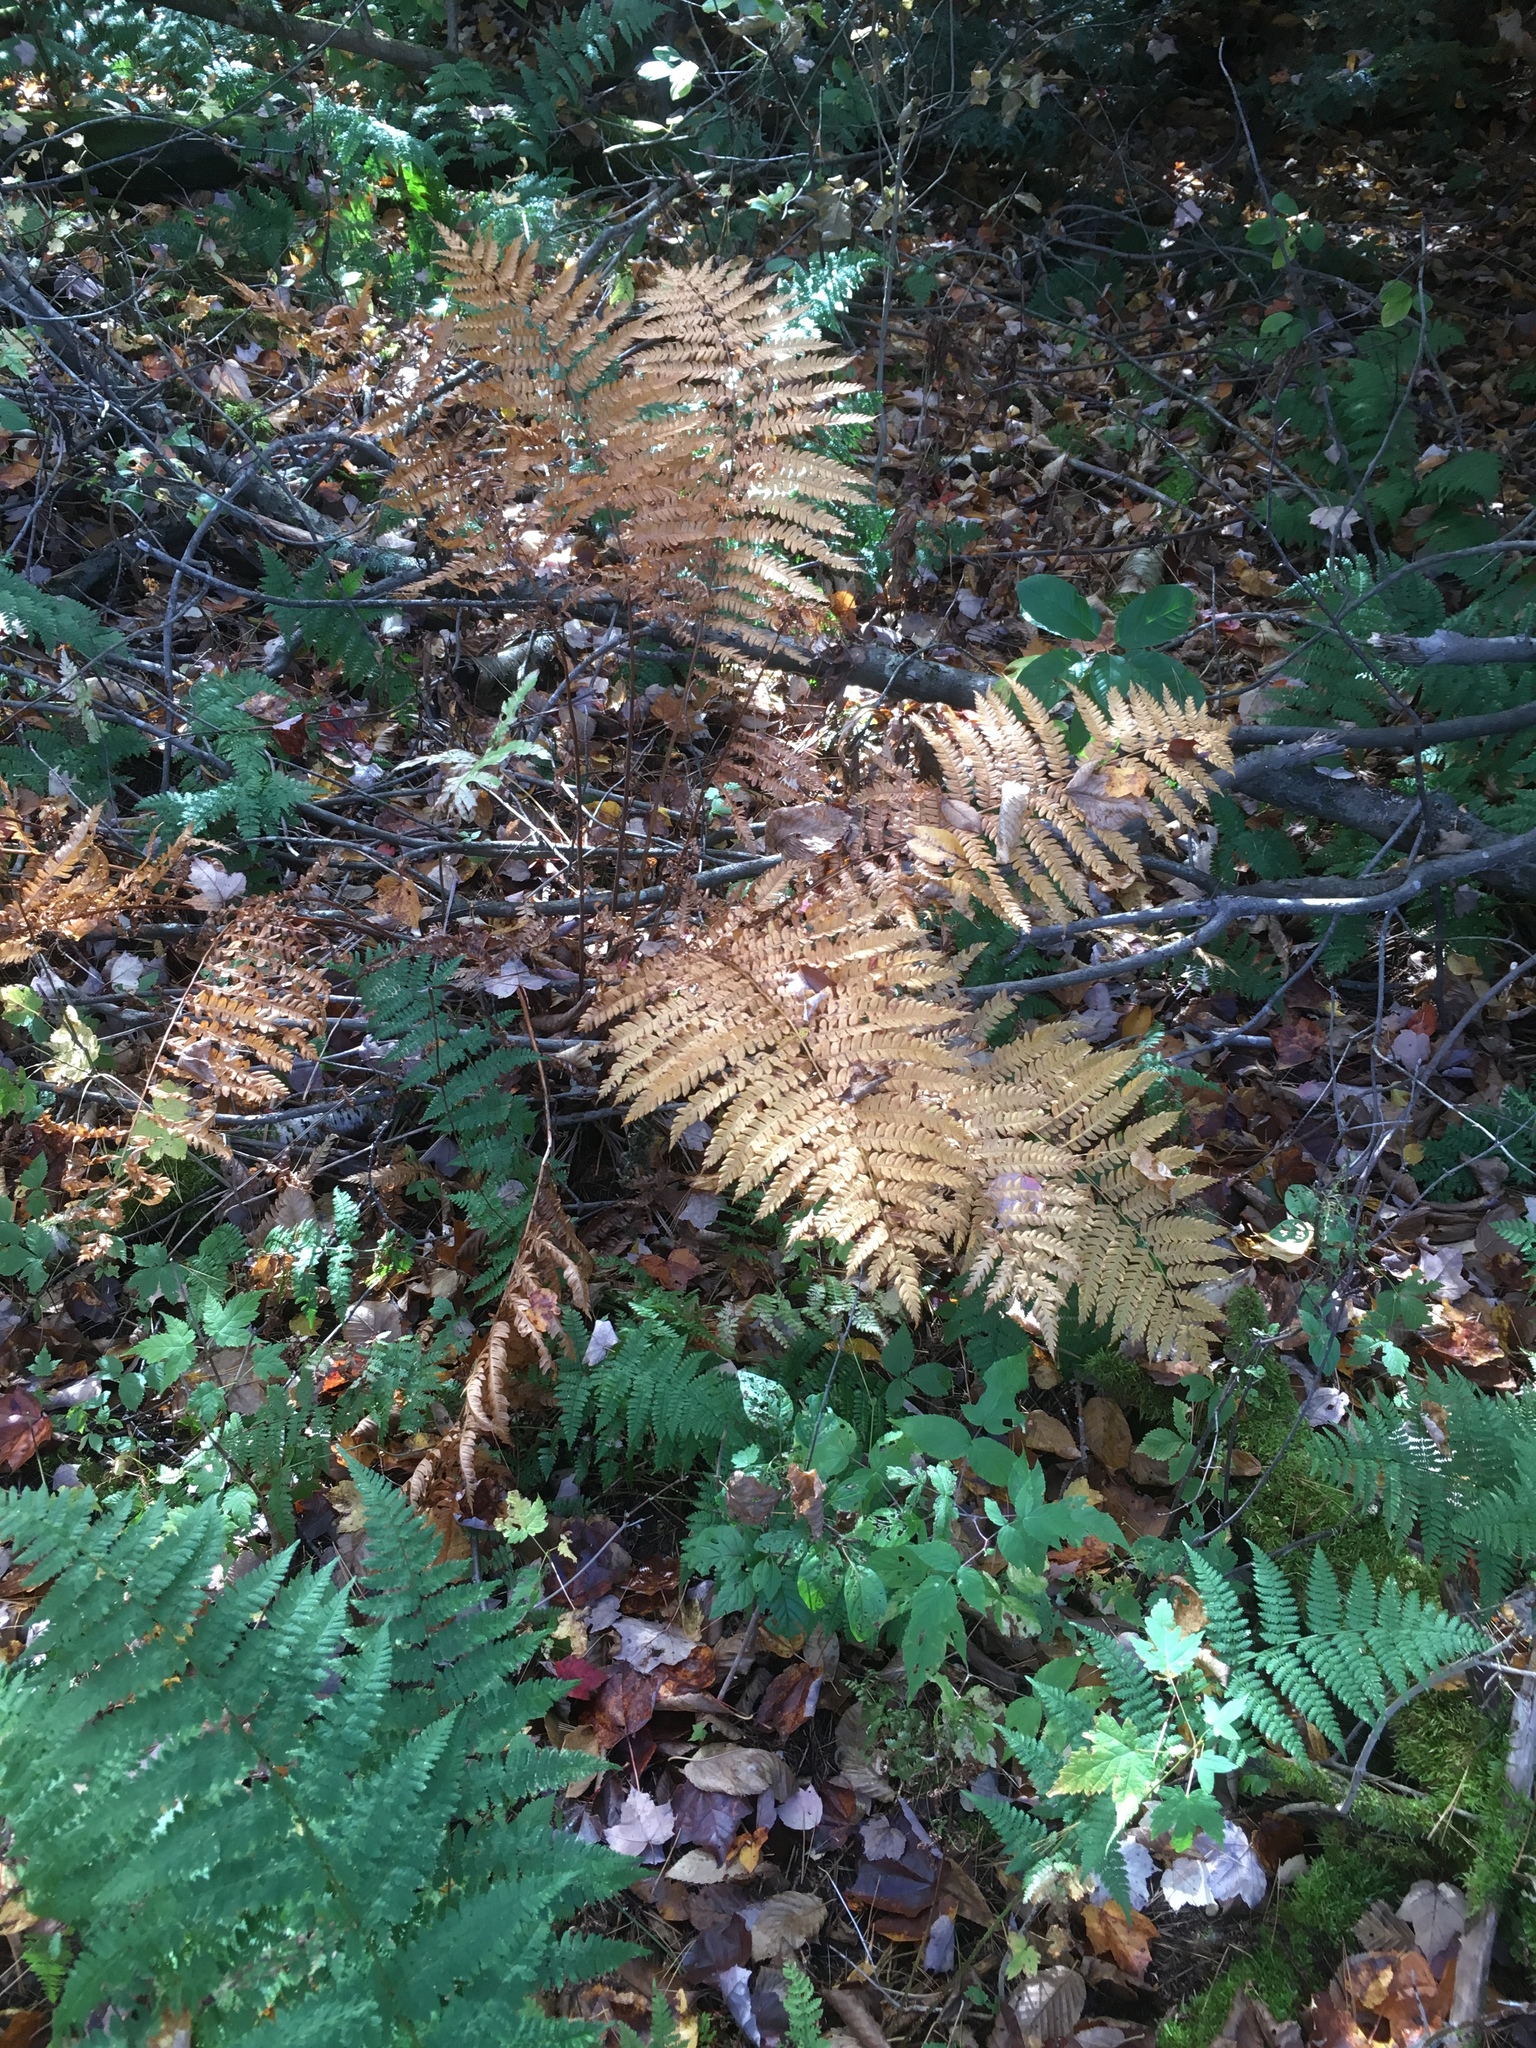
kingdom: Plantae
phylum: Tracheophyta
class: Polypodiopsida
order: Osmundales
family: Osmundaceae
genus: Osmundastrum
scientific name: Osmundastrum cinnamomeum
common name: Cinnamon fern
